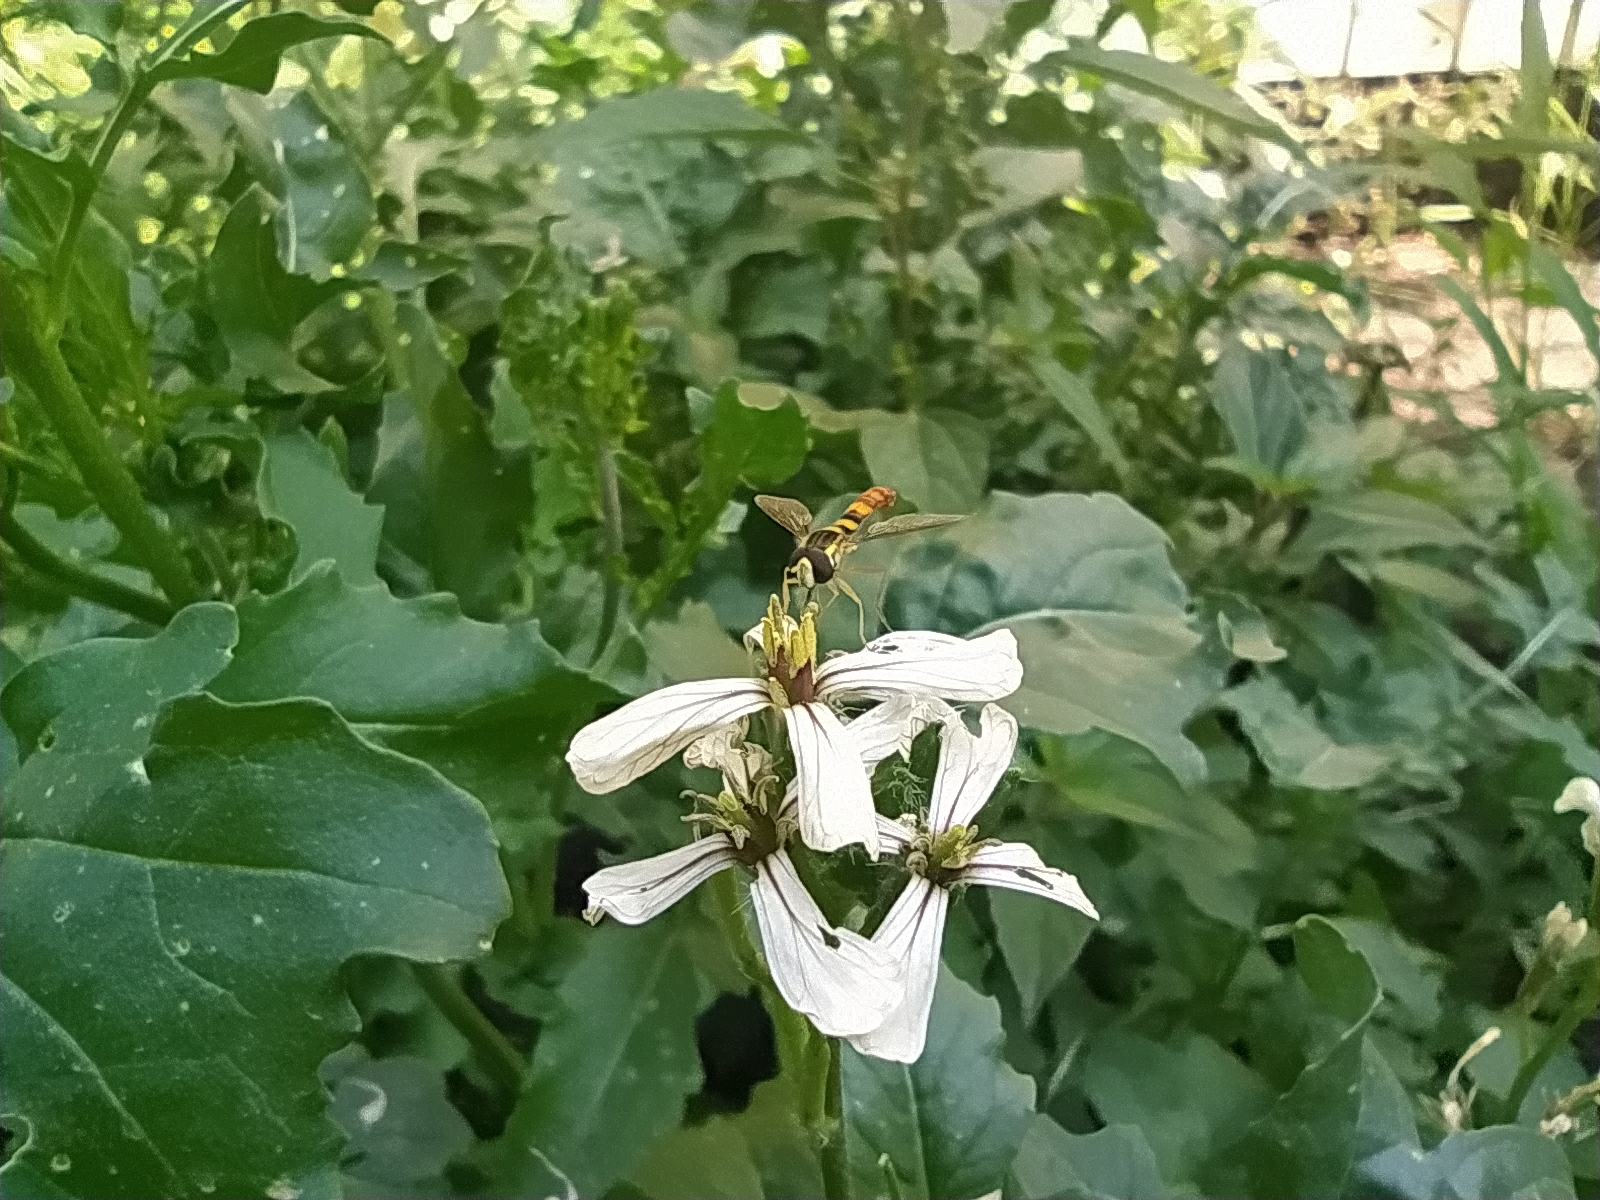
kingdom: Animalia
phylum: Arthropoda
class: Insecta
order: Diptera
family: Syrphidae
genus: Sphaerophoria
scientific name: Sphaerophoria scripta
